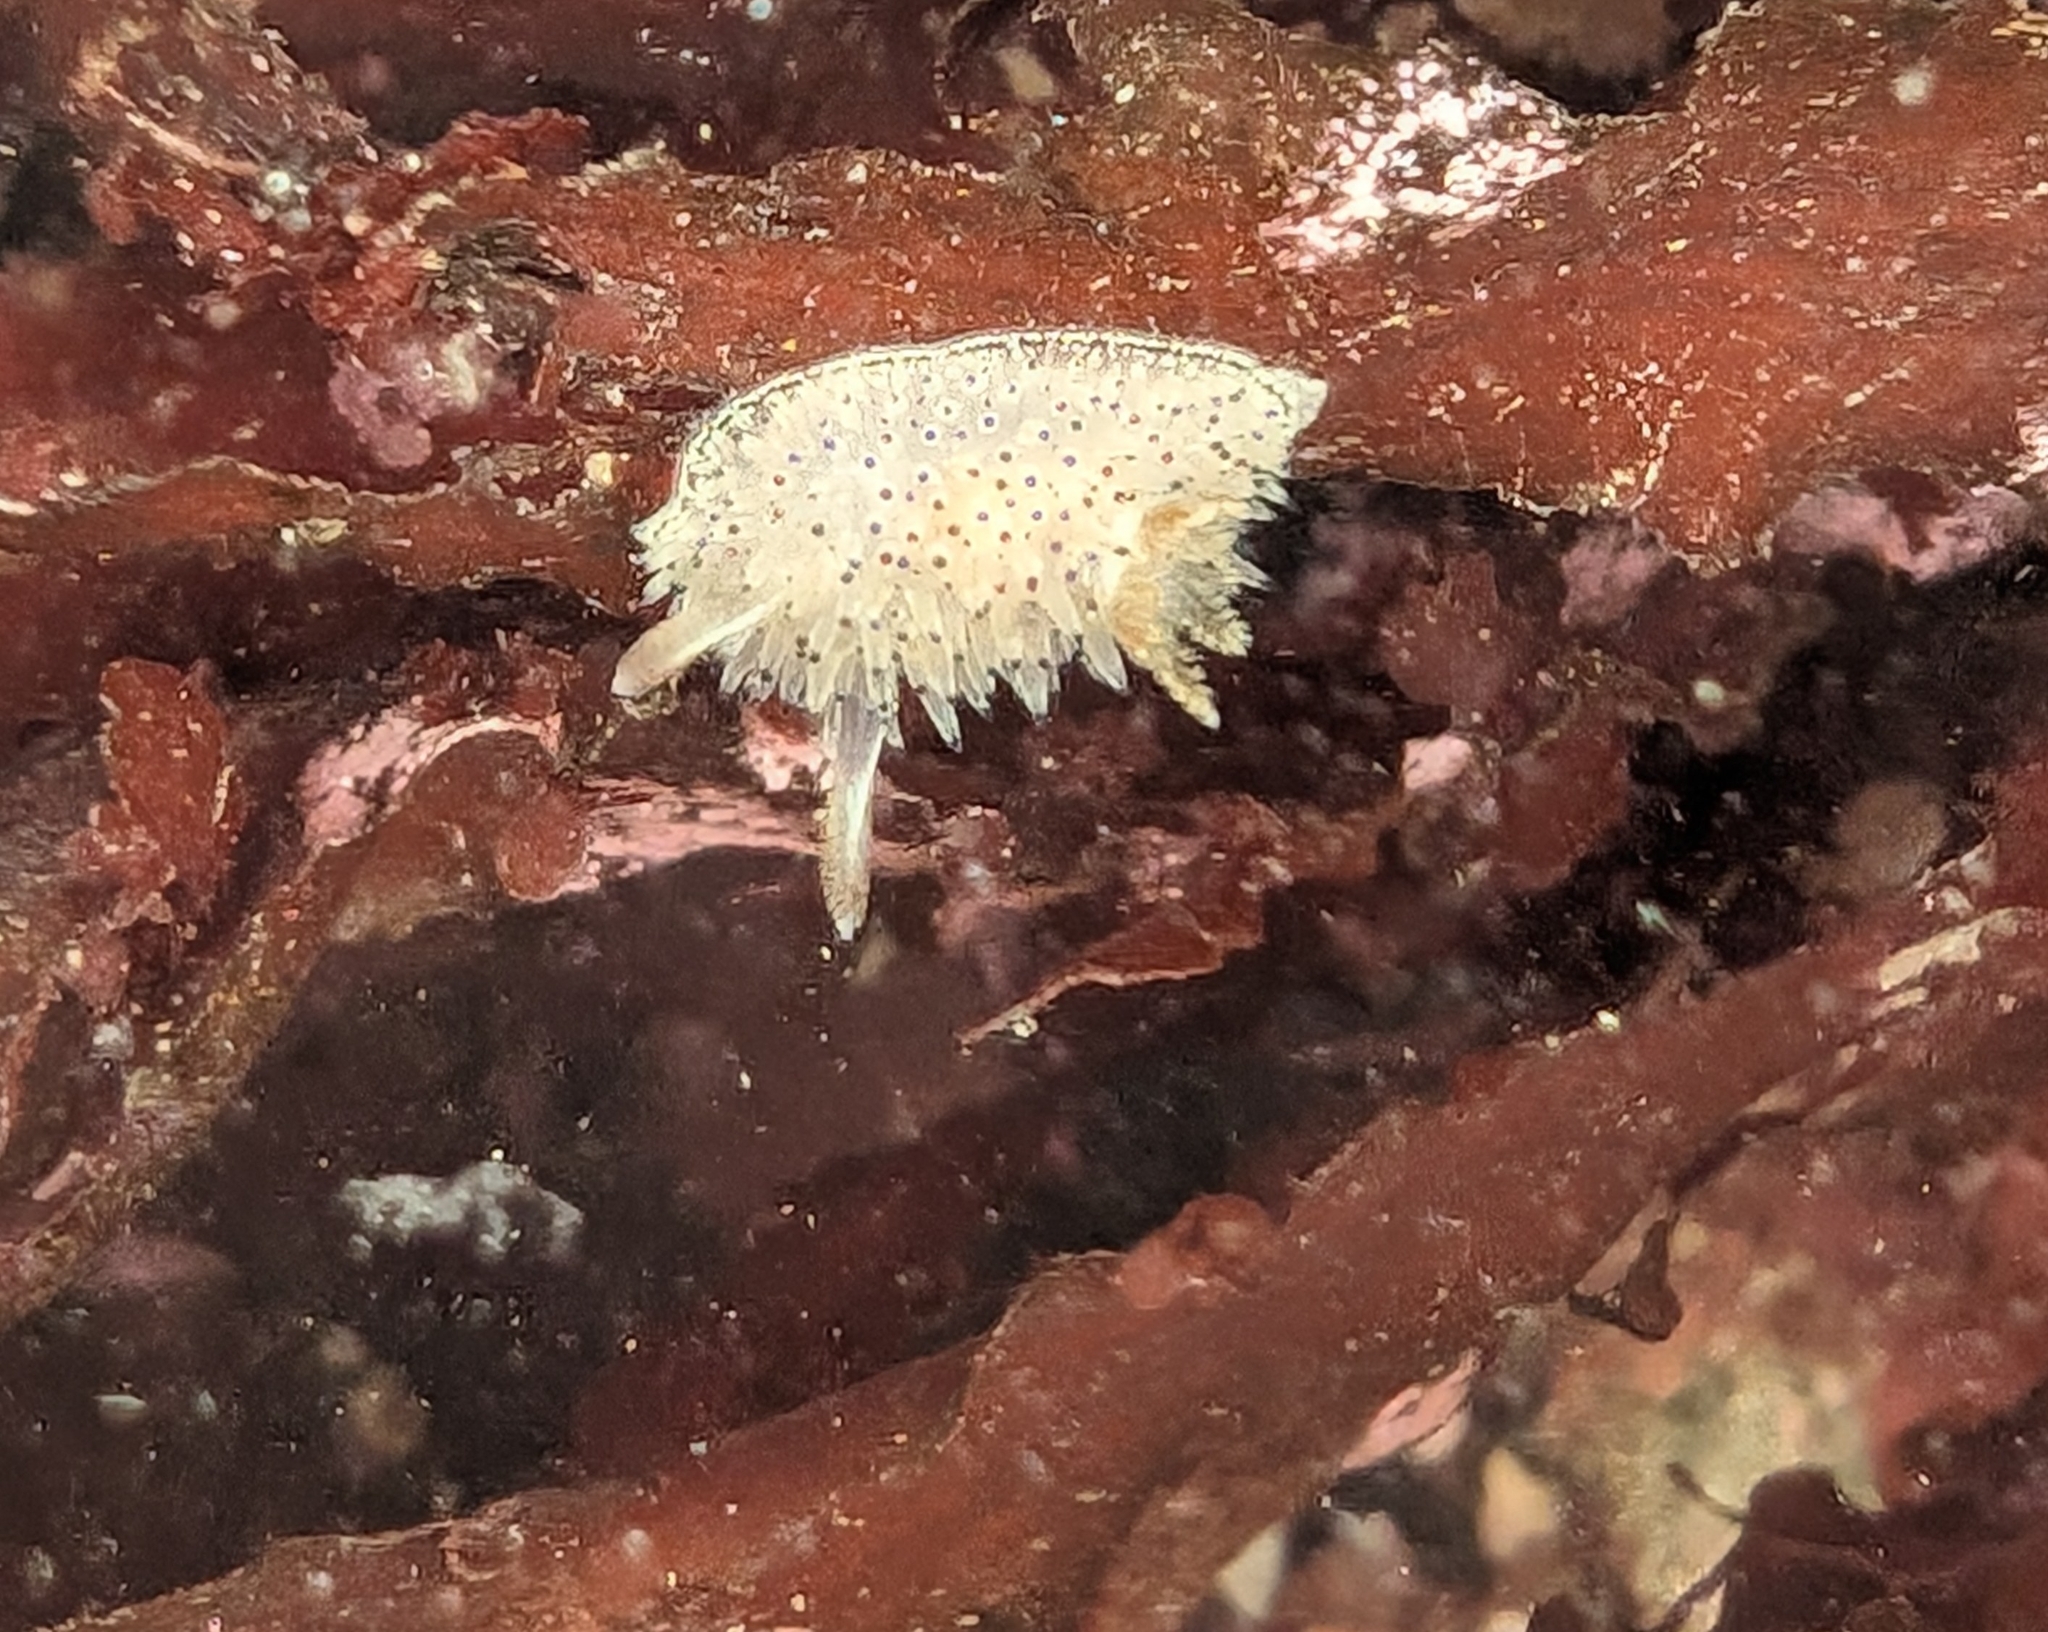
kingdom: Animalia
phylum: Mollusca
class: Gastropoda
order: Nudibranchia
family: Onchidorididae
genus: Acanthodoris
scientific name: Acanthodoris rhodoceras
